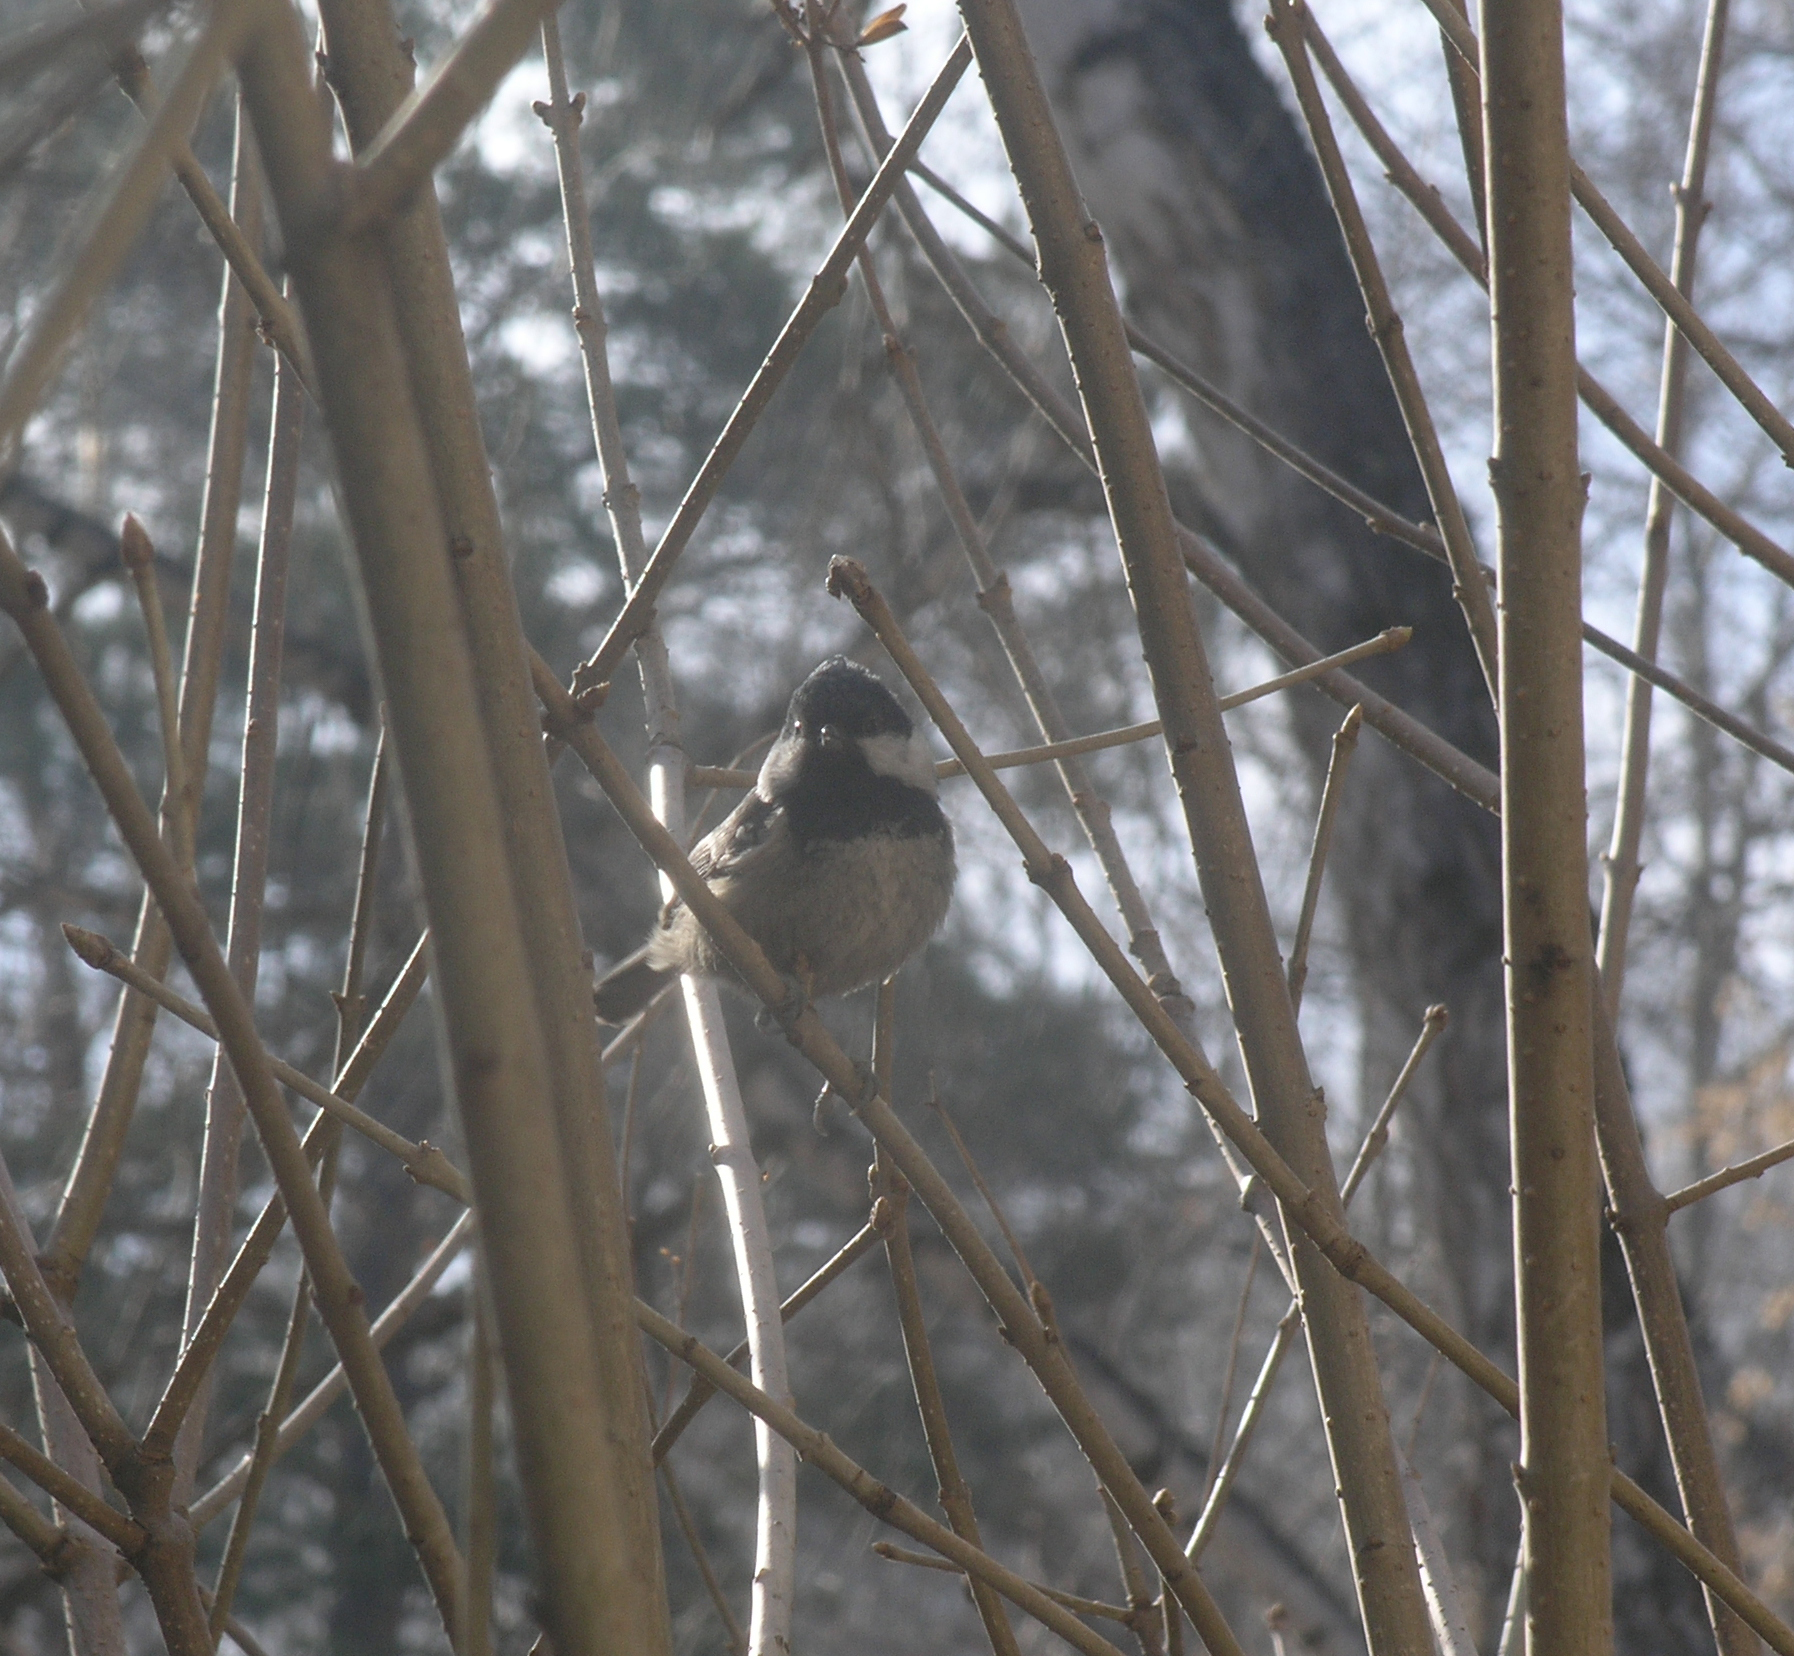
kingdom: Animalia
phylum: Chordata
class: Aves
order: Passeriformes
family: Paridae
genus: Periparus
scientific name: Periparus ater
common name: Coal tit
